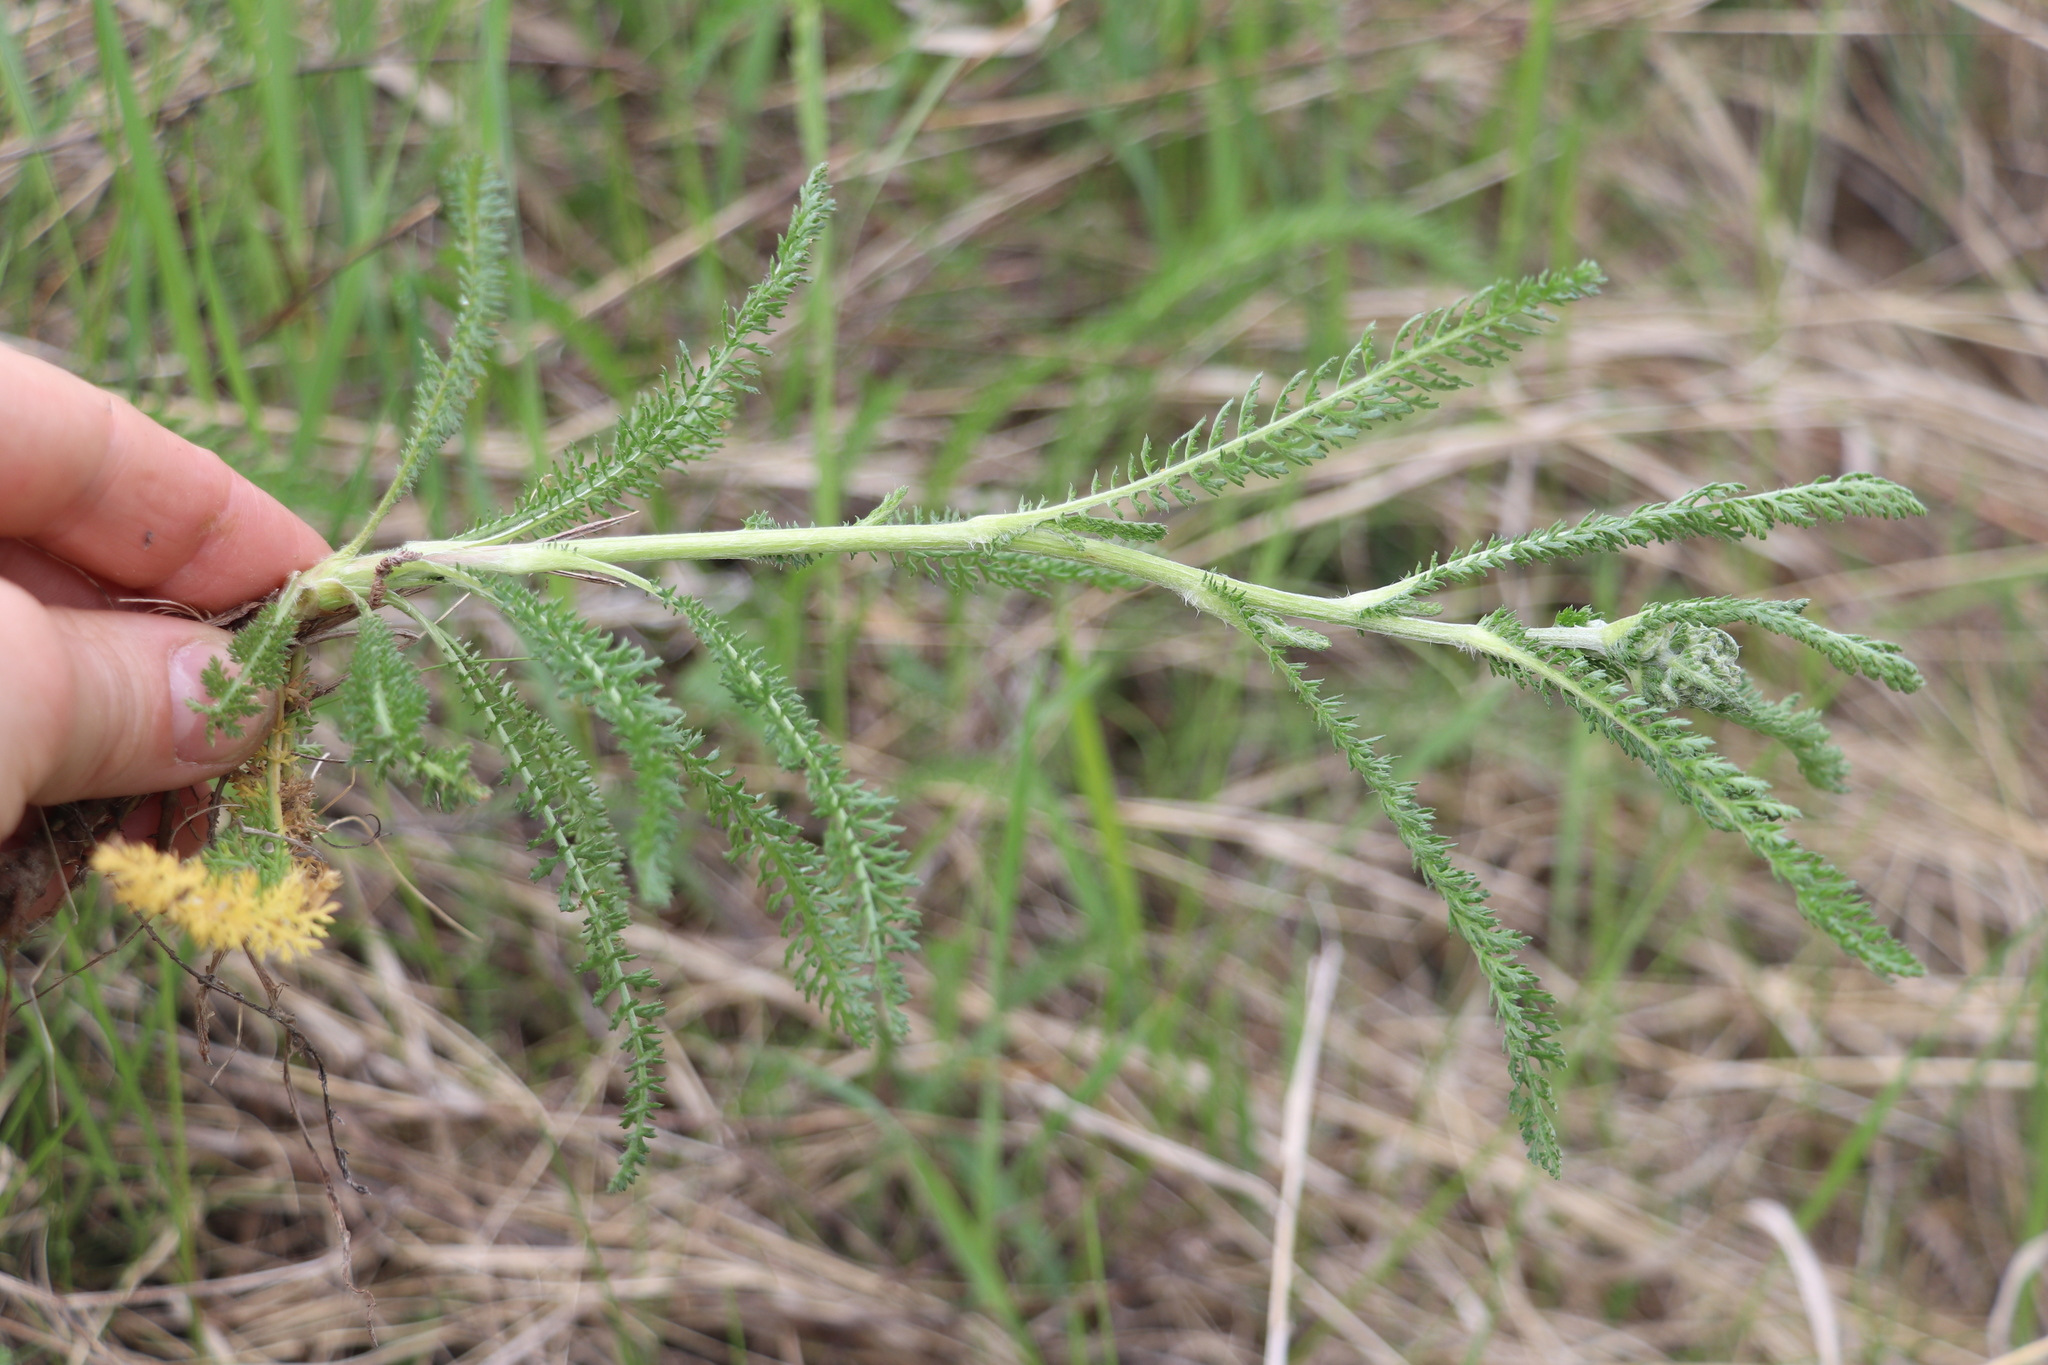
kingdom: Plantae
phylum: Tracheophyta
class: Magnoliopsida
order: Asterales
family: Asteraceae
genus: Achillea
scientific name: Achillea millefolium
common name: Yarrow
